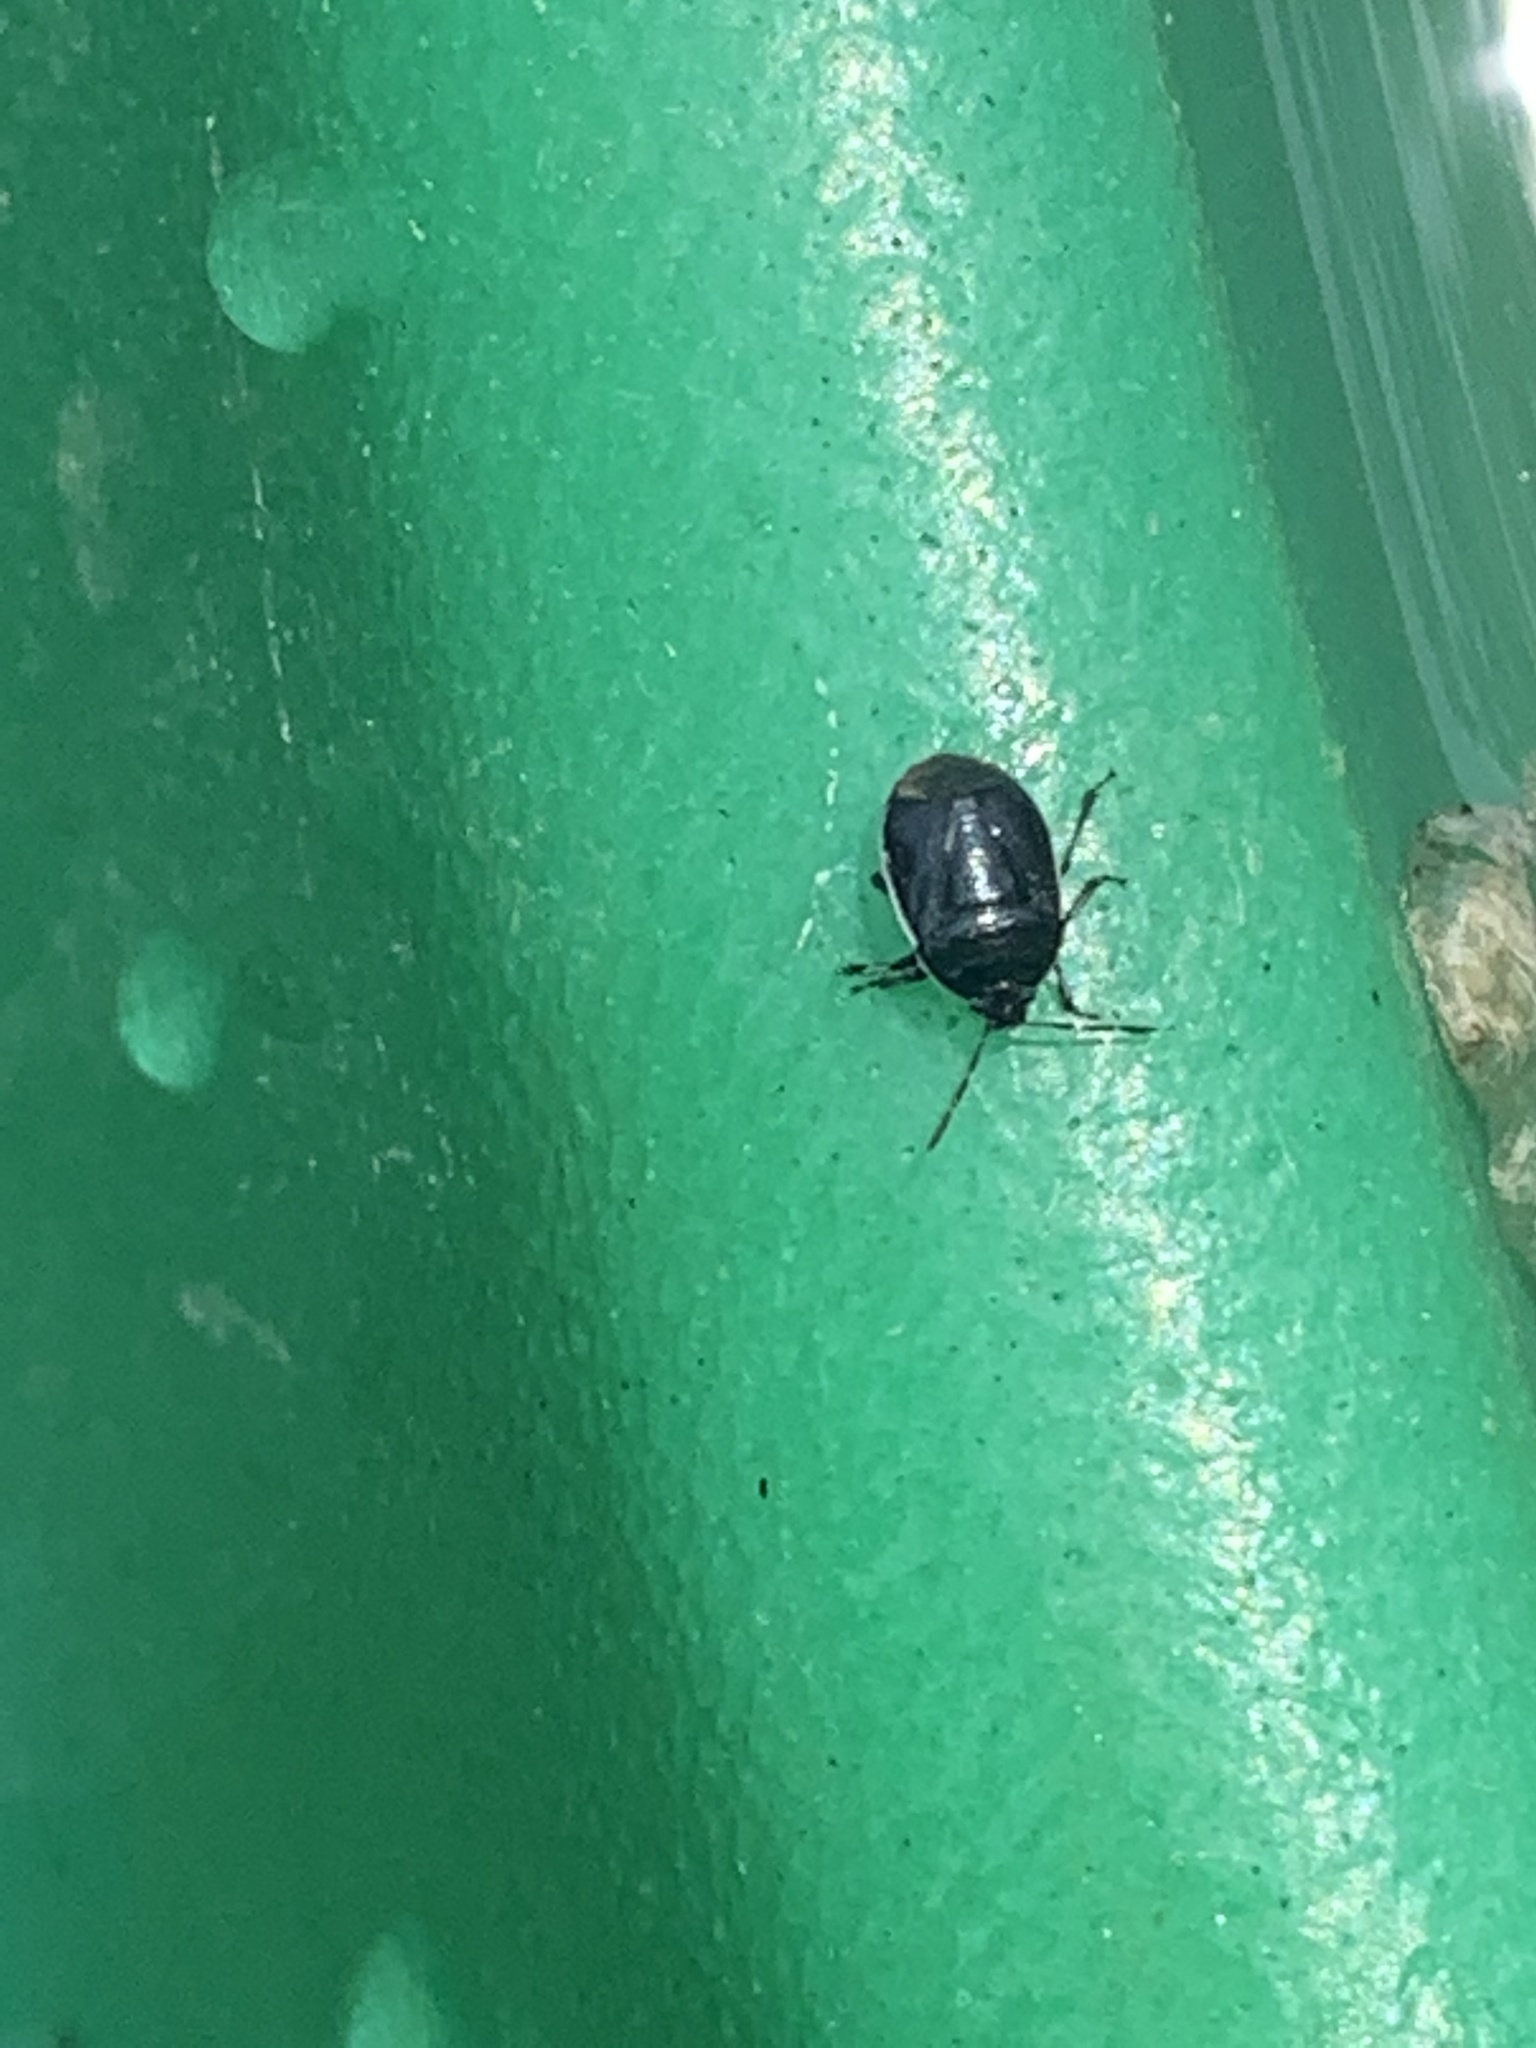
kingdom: Animalia
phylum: Arthropoda
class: Insecta
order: Hemiptera
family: Cydnidae
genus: Sehirus
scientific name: Sehirus cinctus
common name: White-margined burrower bug
